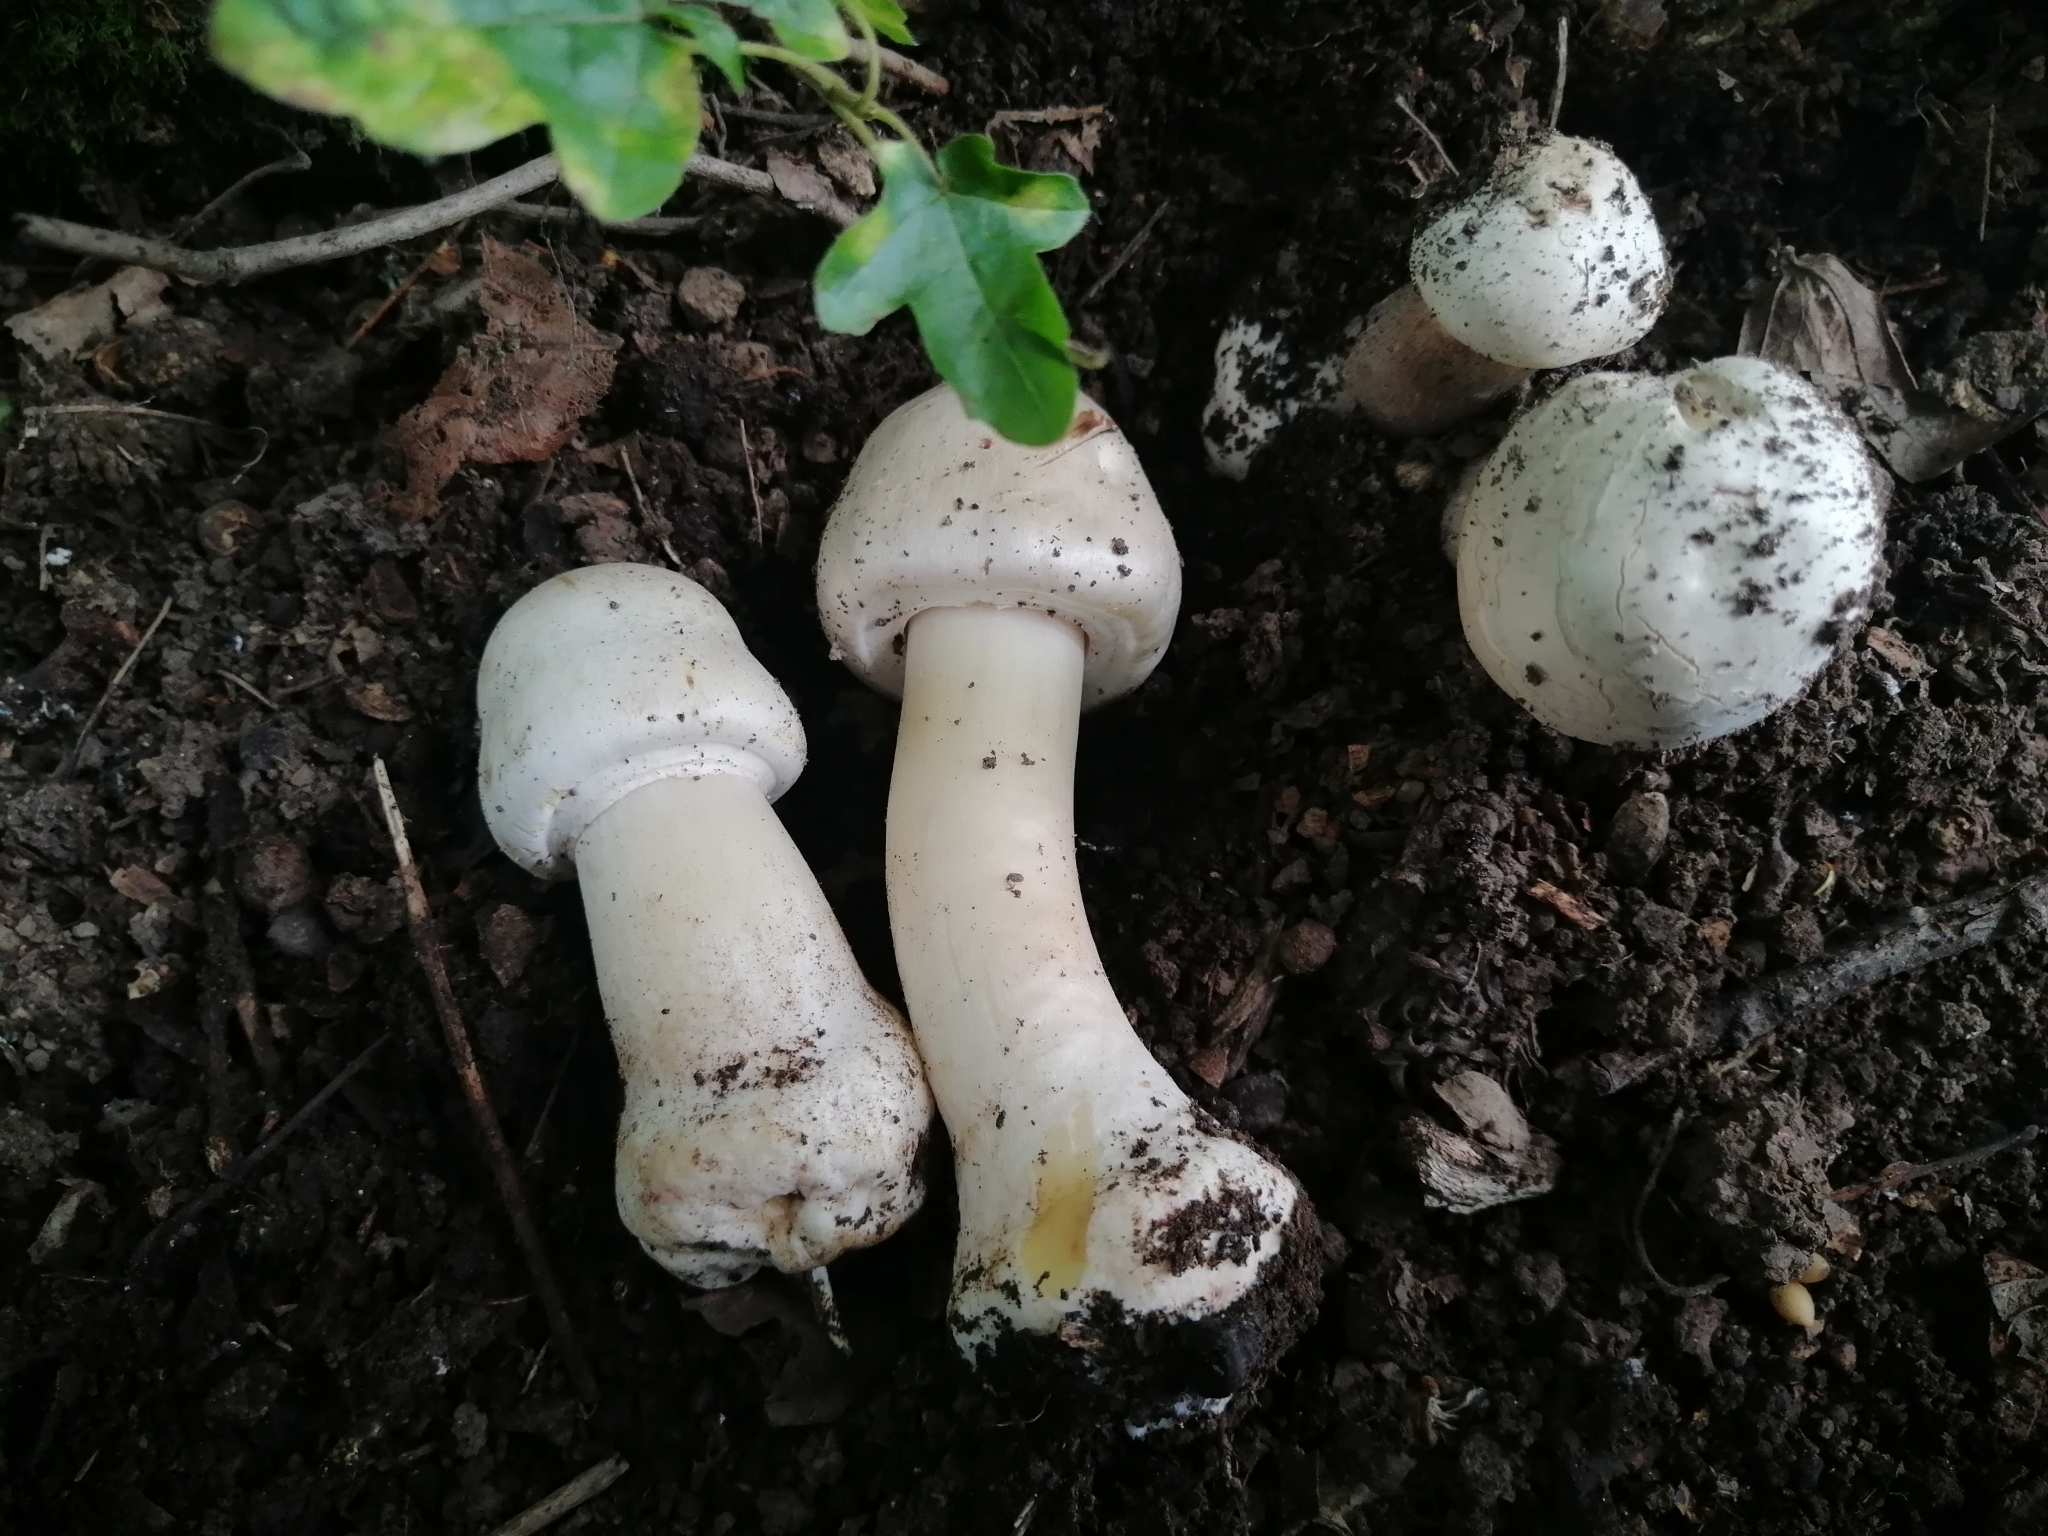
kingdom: Fungi
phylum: Basidiomycota
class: Agaricomycetes
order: Agaricales
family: Agaricaceae
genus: Agaricus
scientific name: Agaricus xanthodermus
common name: Yellow stainer
